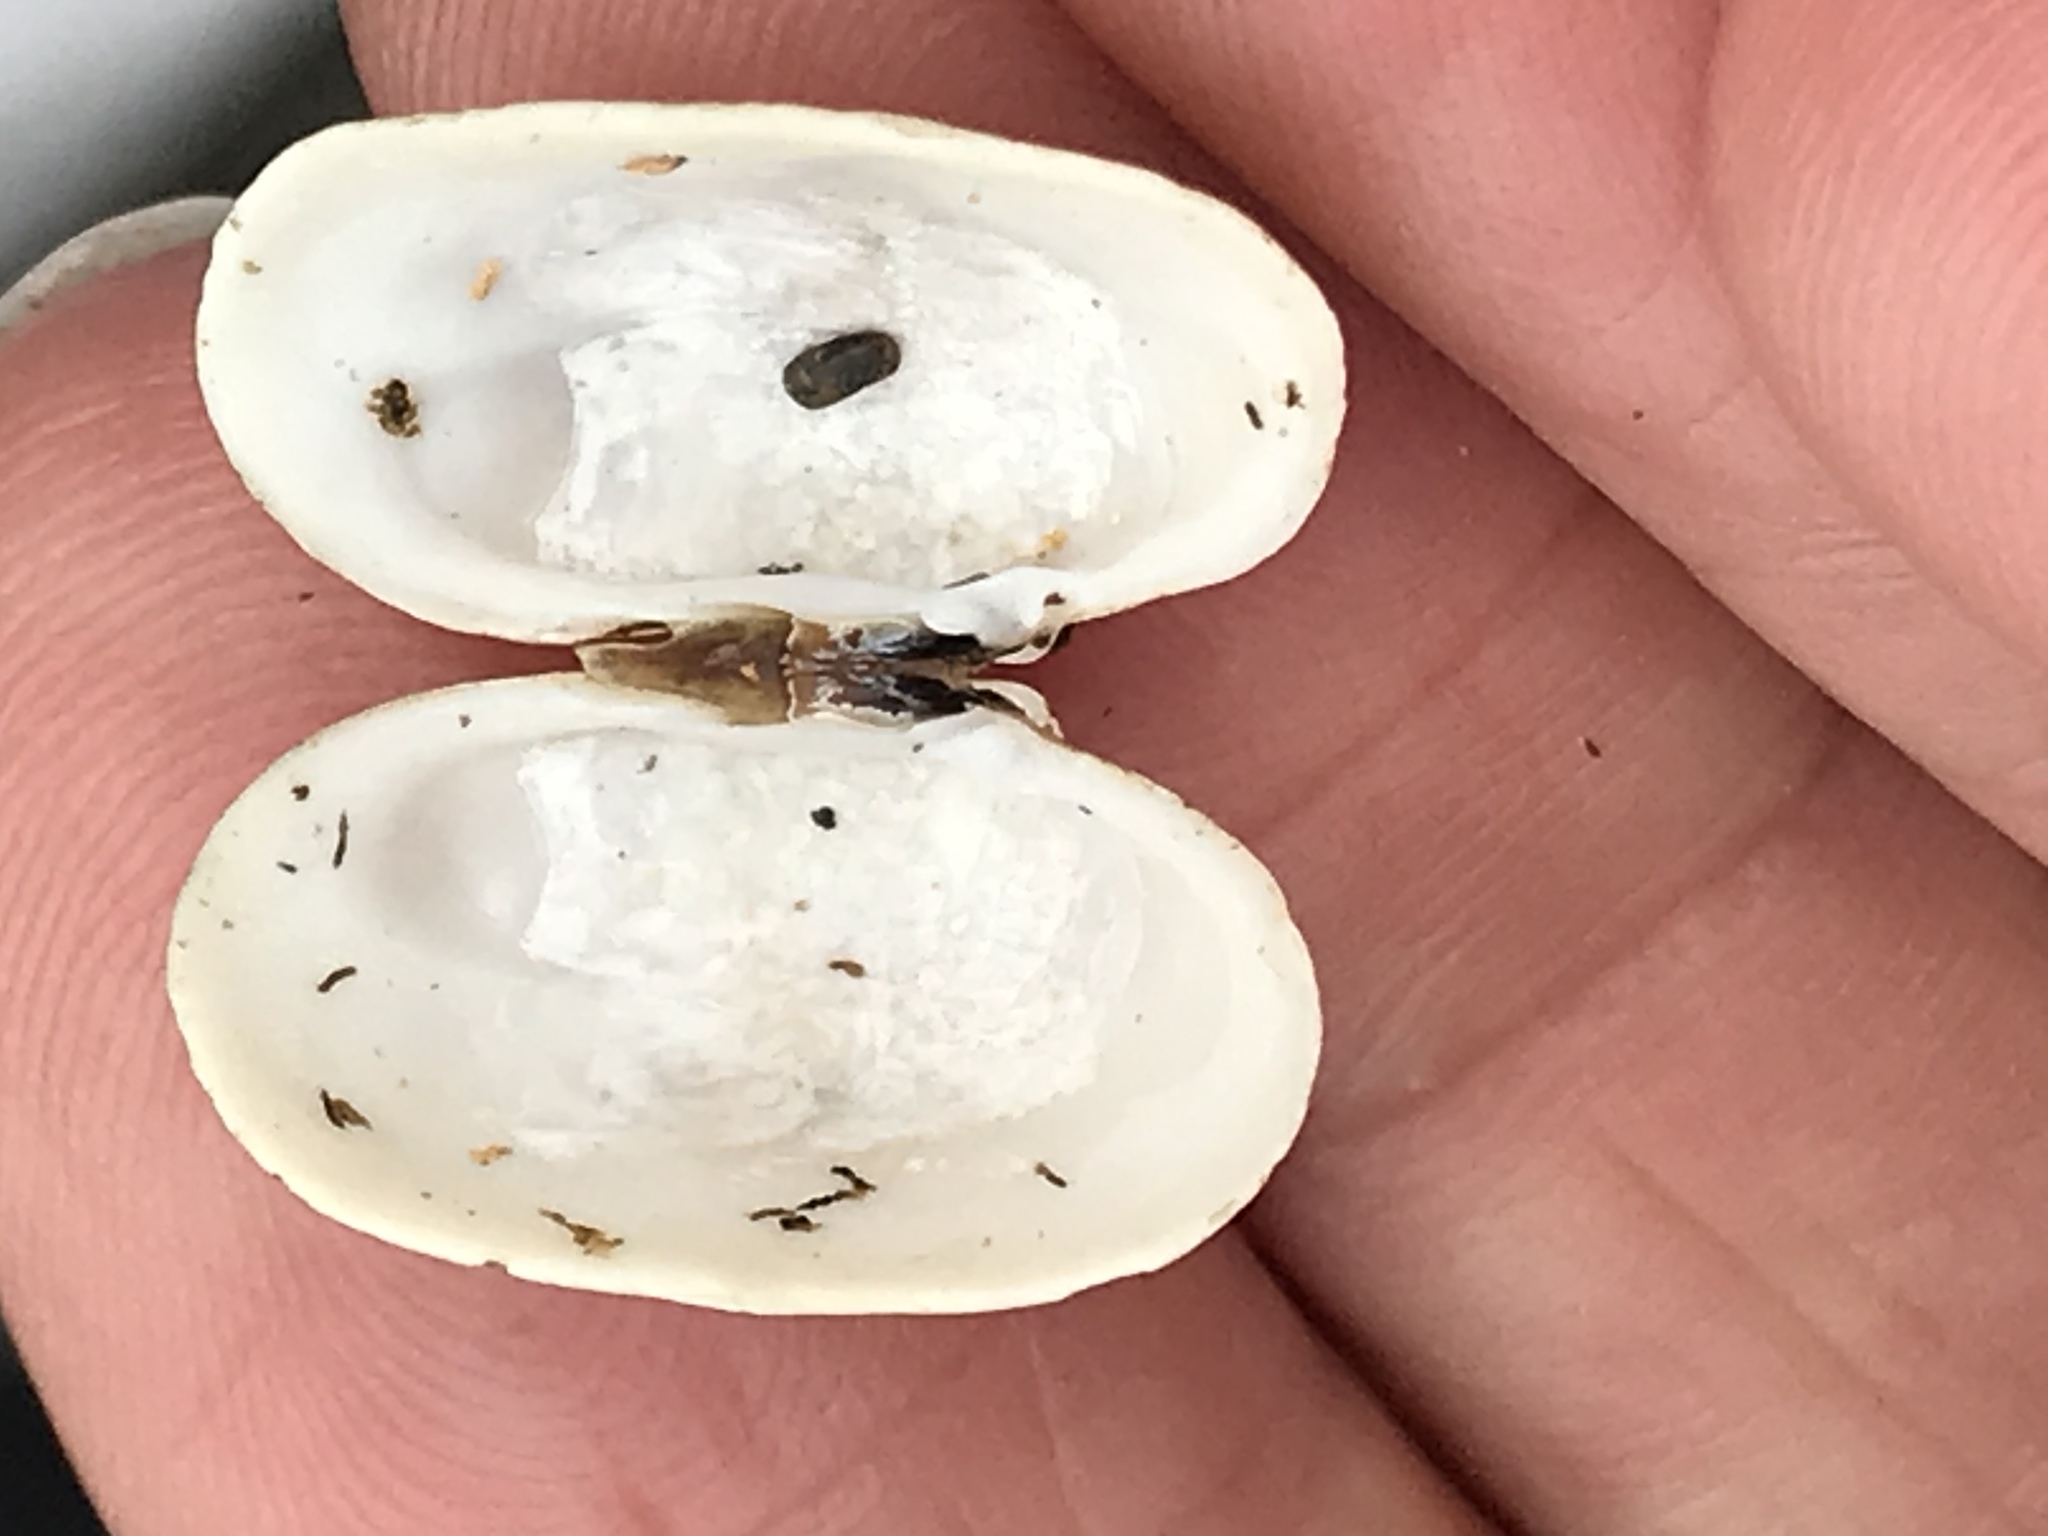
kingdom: Animalia
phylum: Mollusca
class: Bivalvia
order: Venerida
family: Veneridae
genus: Petricola
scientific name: Petricola carditoides
